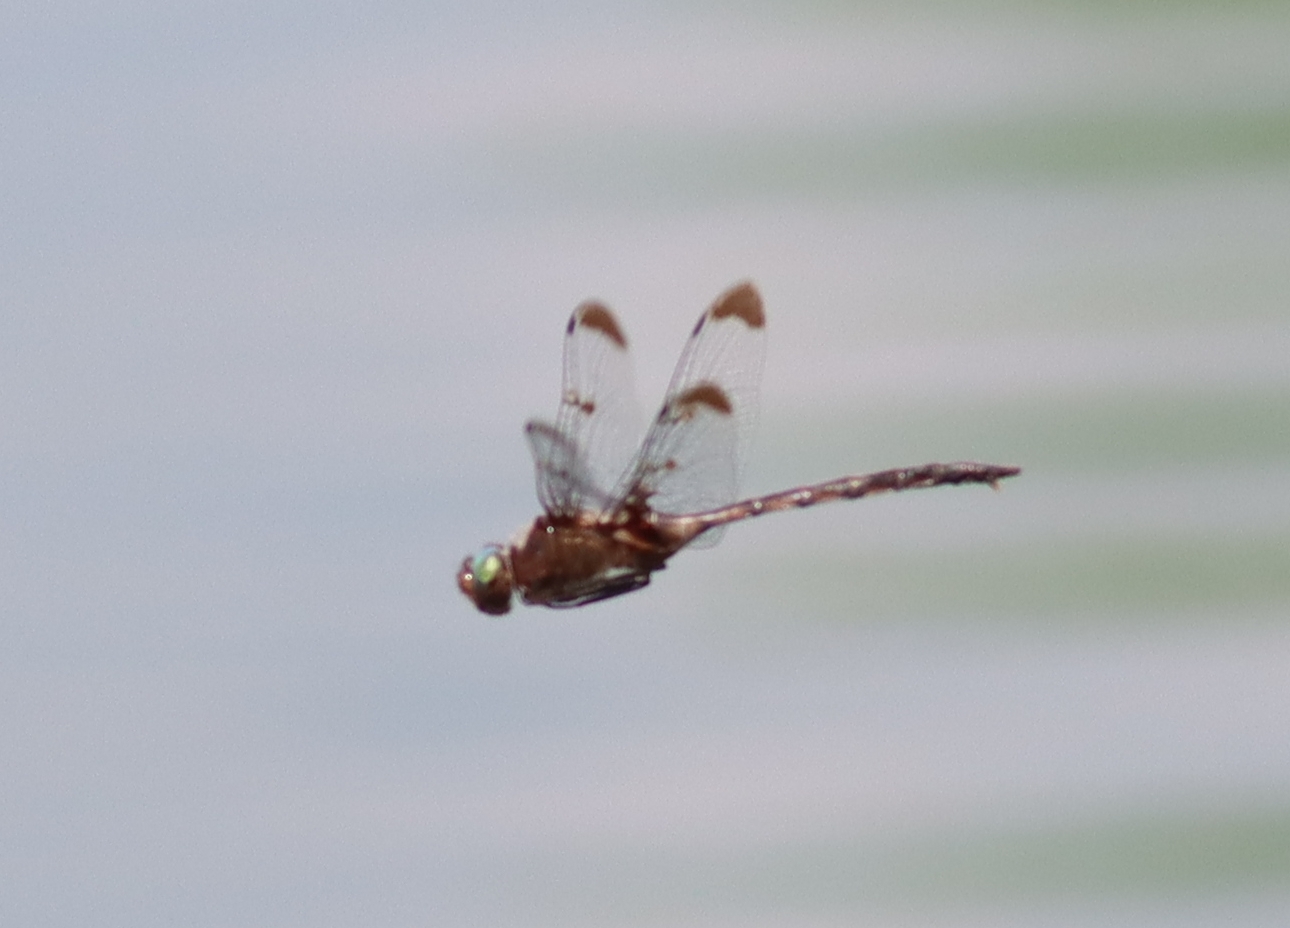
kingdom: Animalia
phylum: Arthropoda
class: Insecta
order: Odonata
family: Corduliidae
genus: Epitheca
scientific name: Epitheca princeps
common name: Prince baskettail
